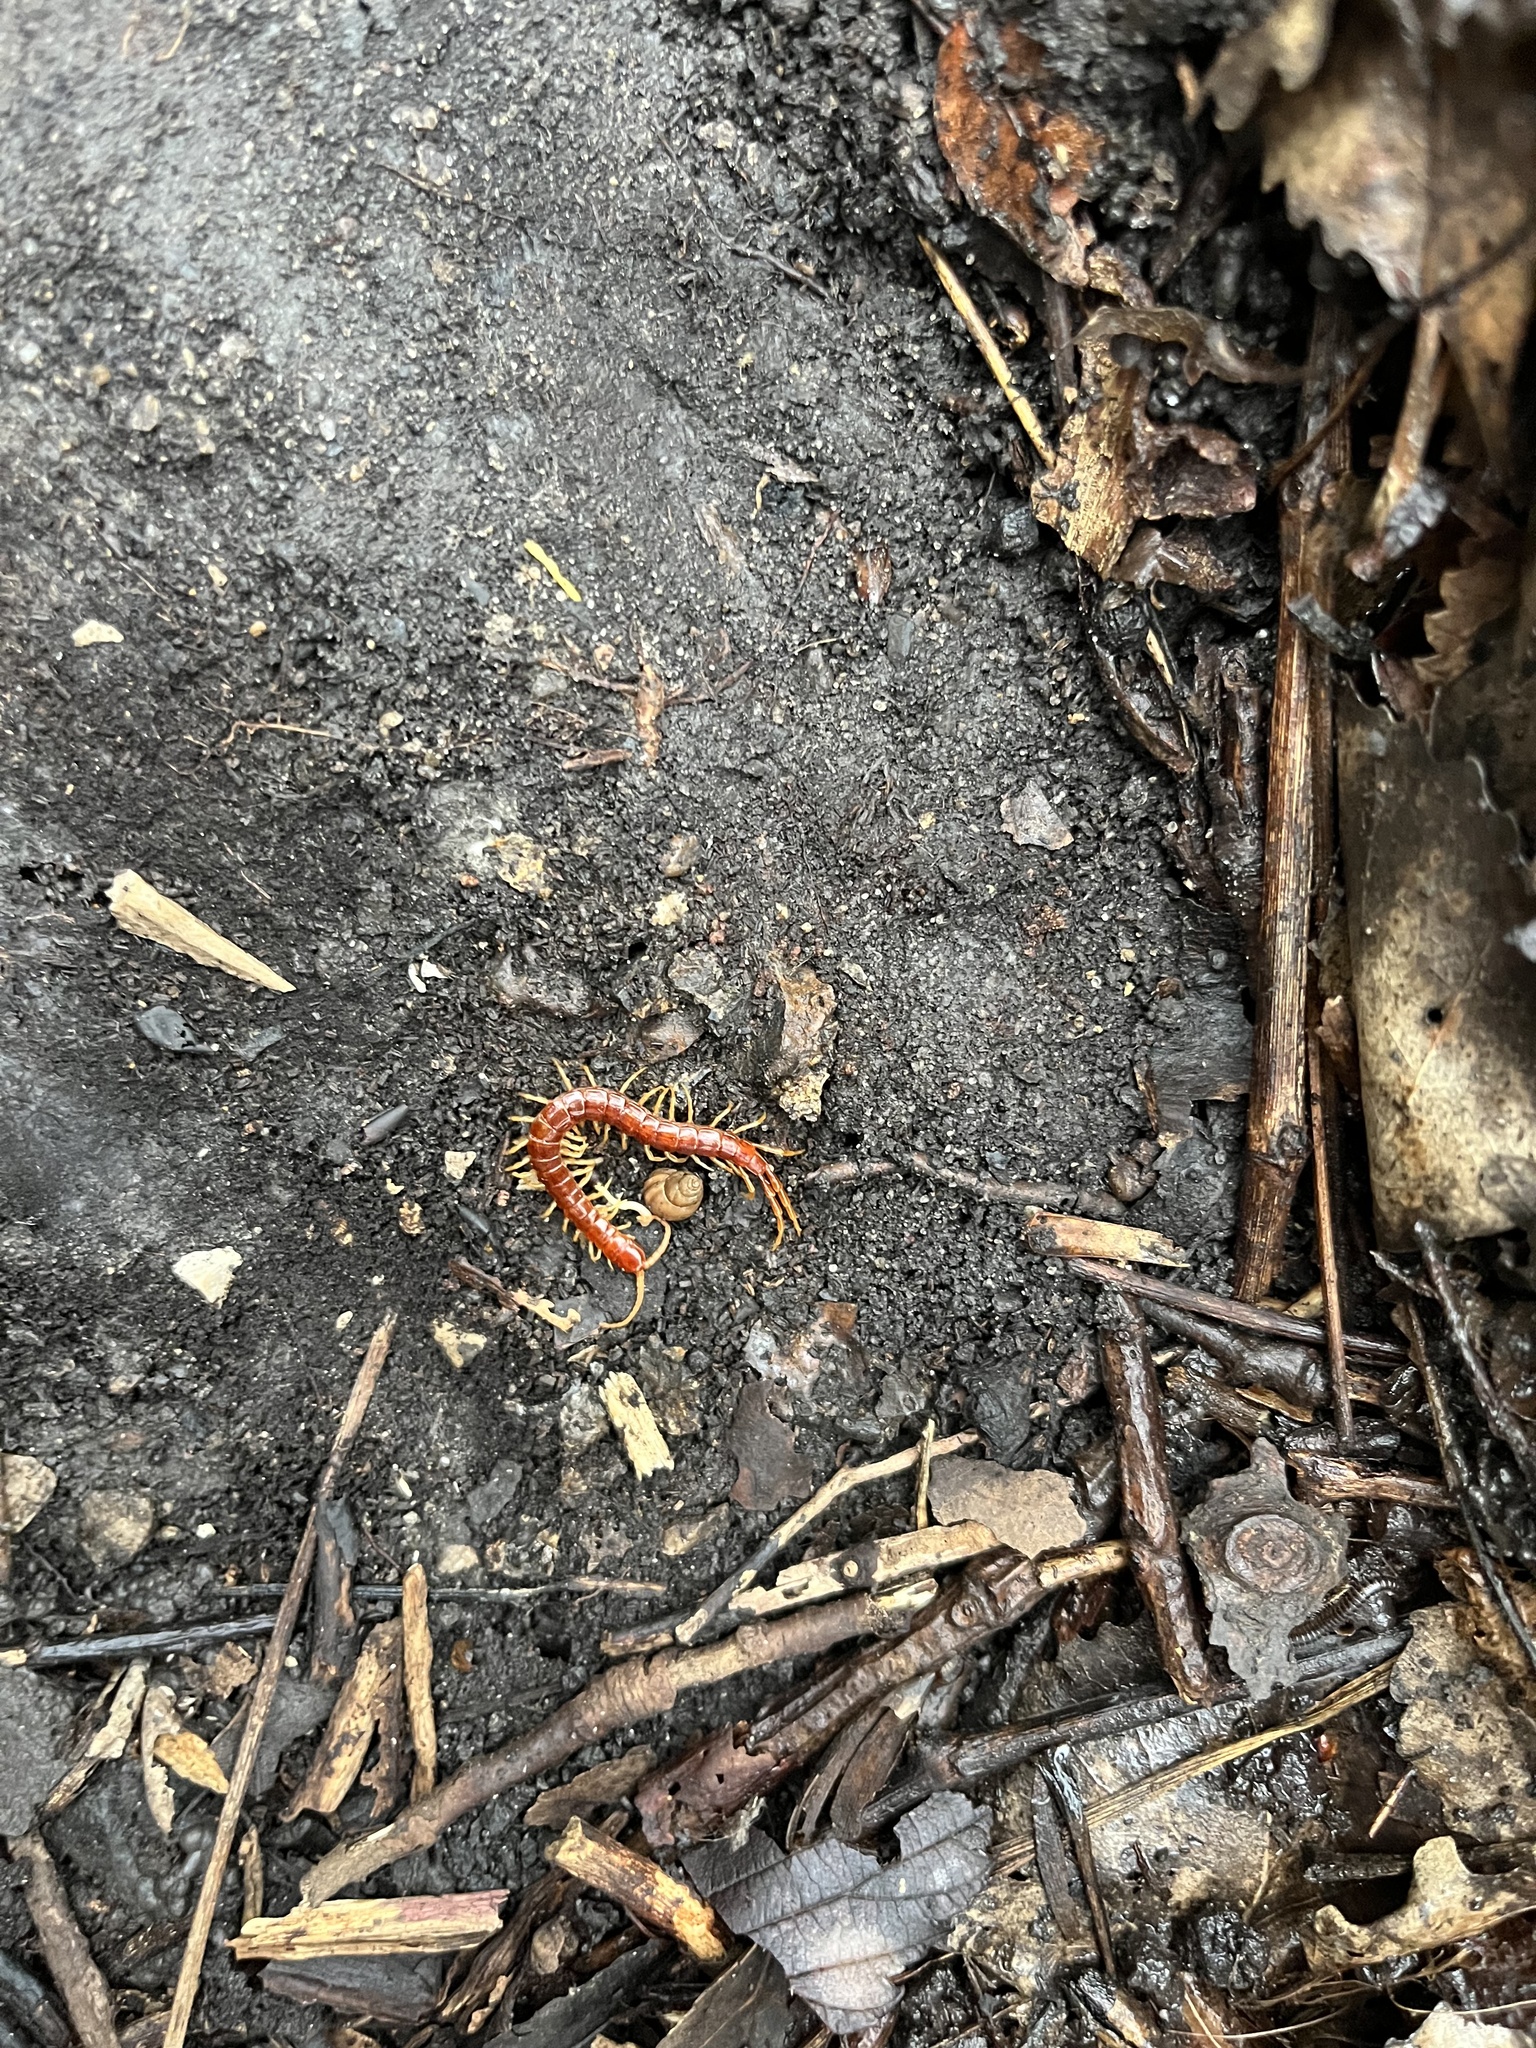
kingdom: Animalia
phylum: Arthropoda
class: Chilopoda
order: Scolopendromorpha
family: Scolopocryptopidae
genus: Scolopocryptops
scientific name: Scolopocryptops sexspinosus
